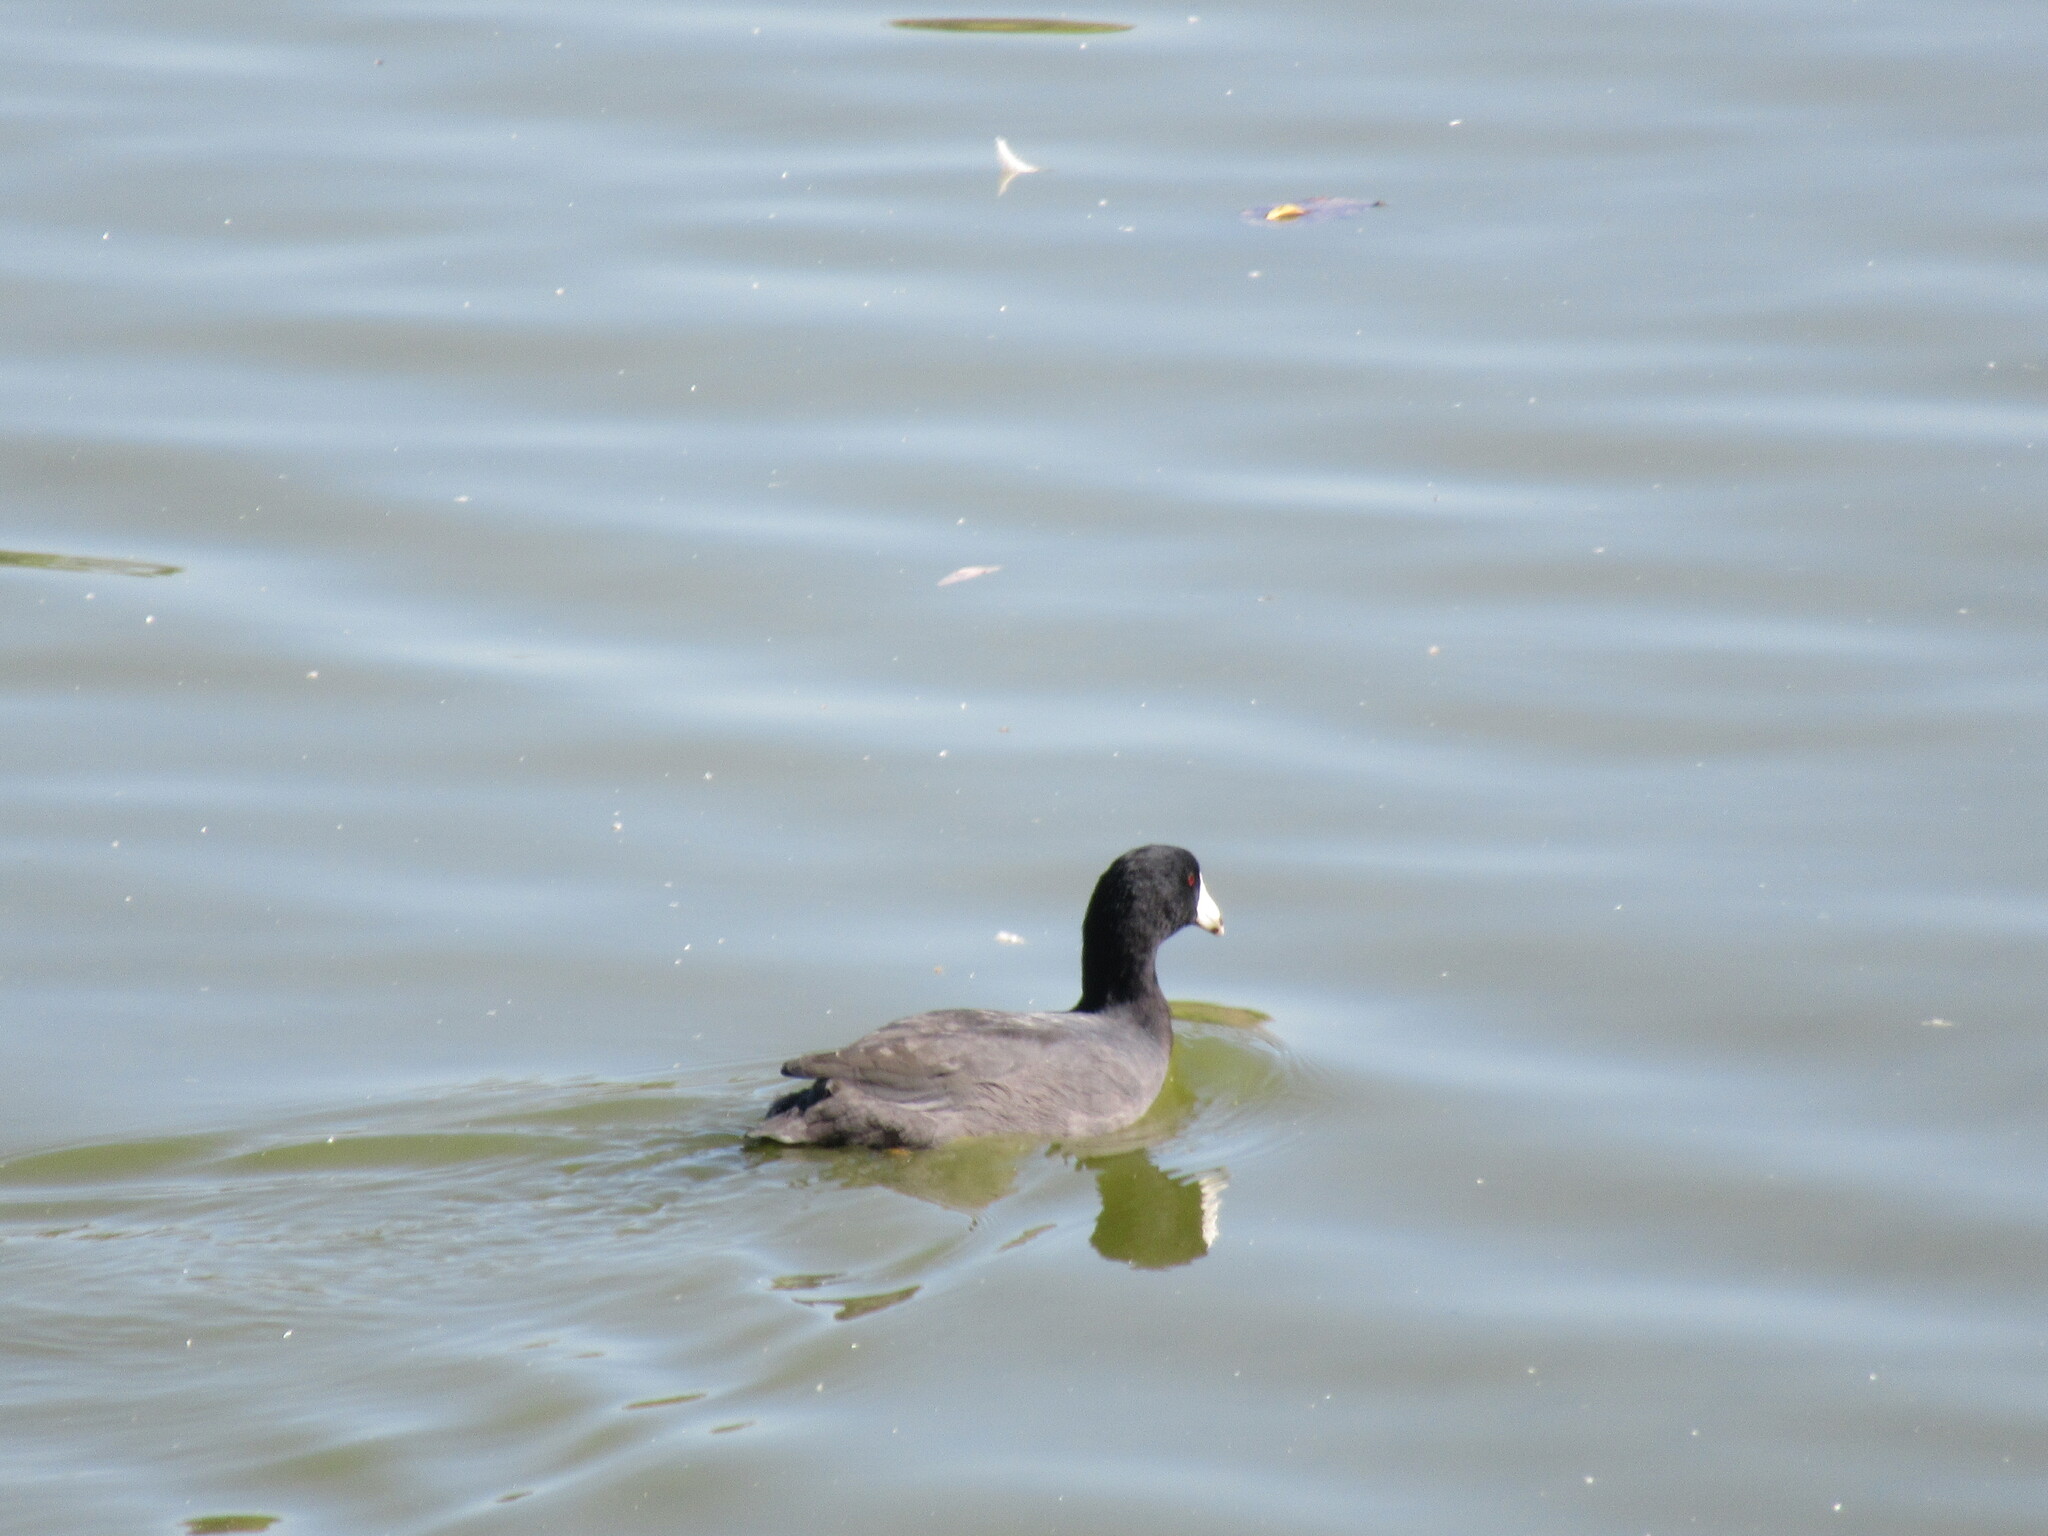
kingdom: Animalia
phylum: Chordata
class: Aves
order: Gruiformes
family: Rallidae
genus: Fulica
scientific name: Fulica americana
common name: American coot
